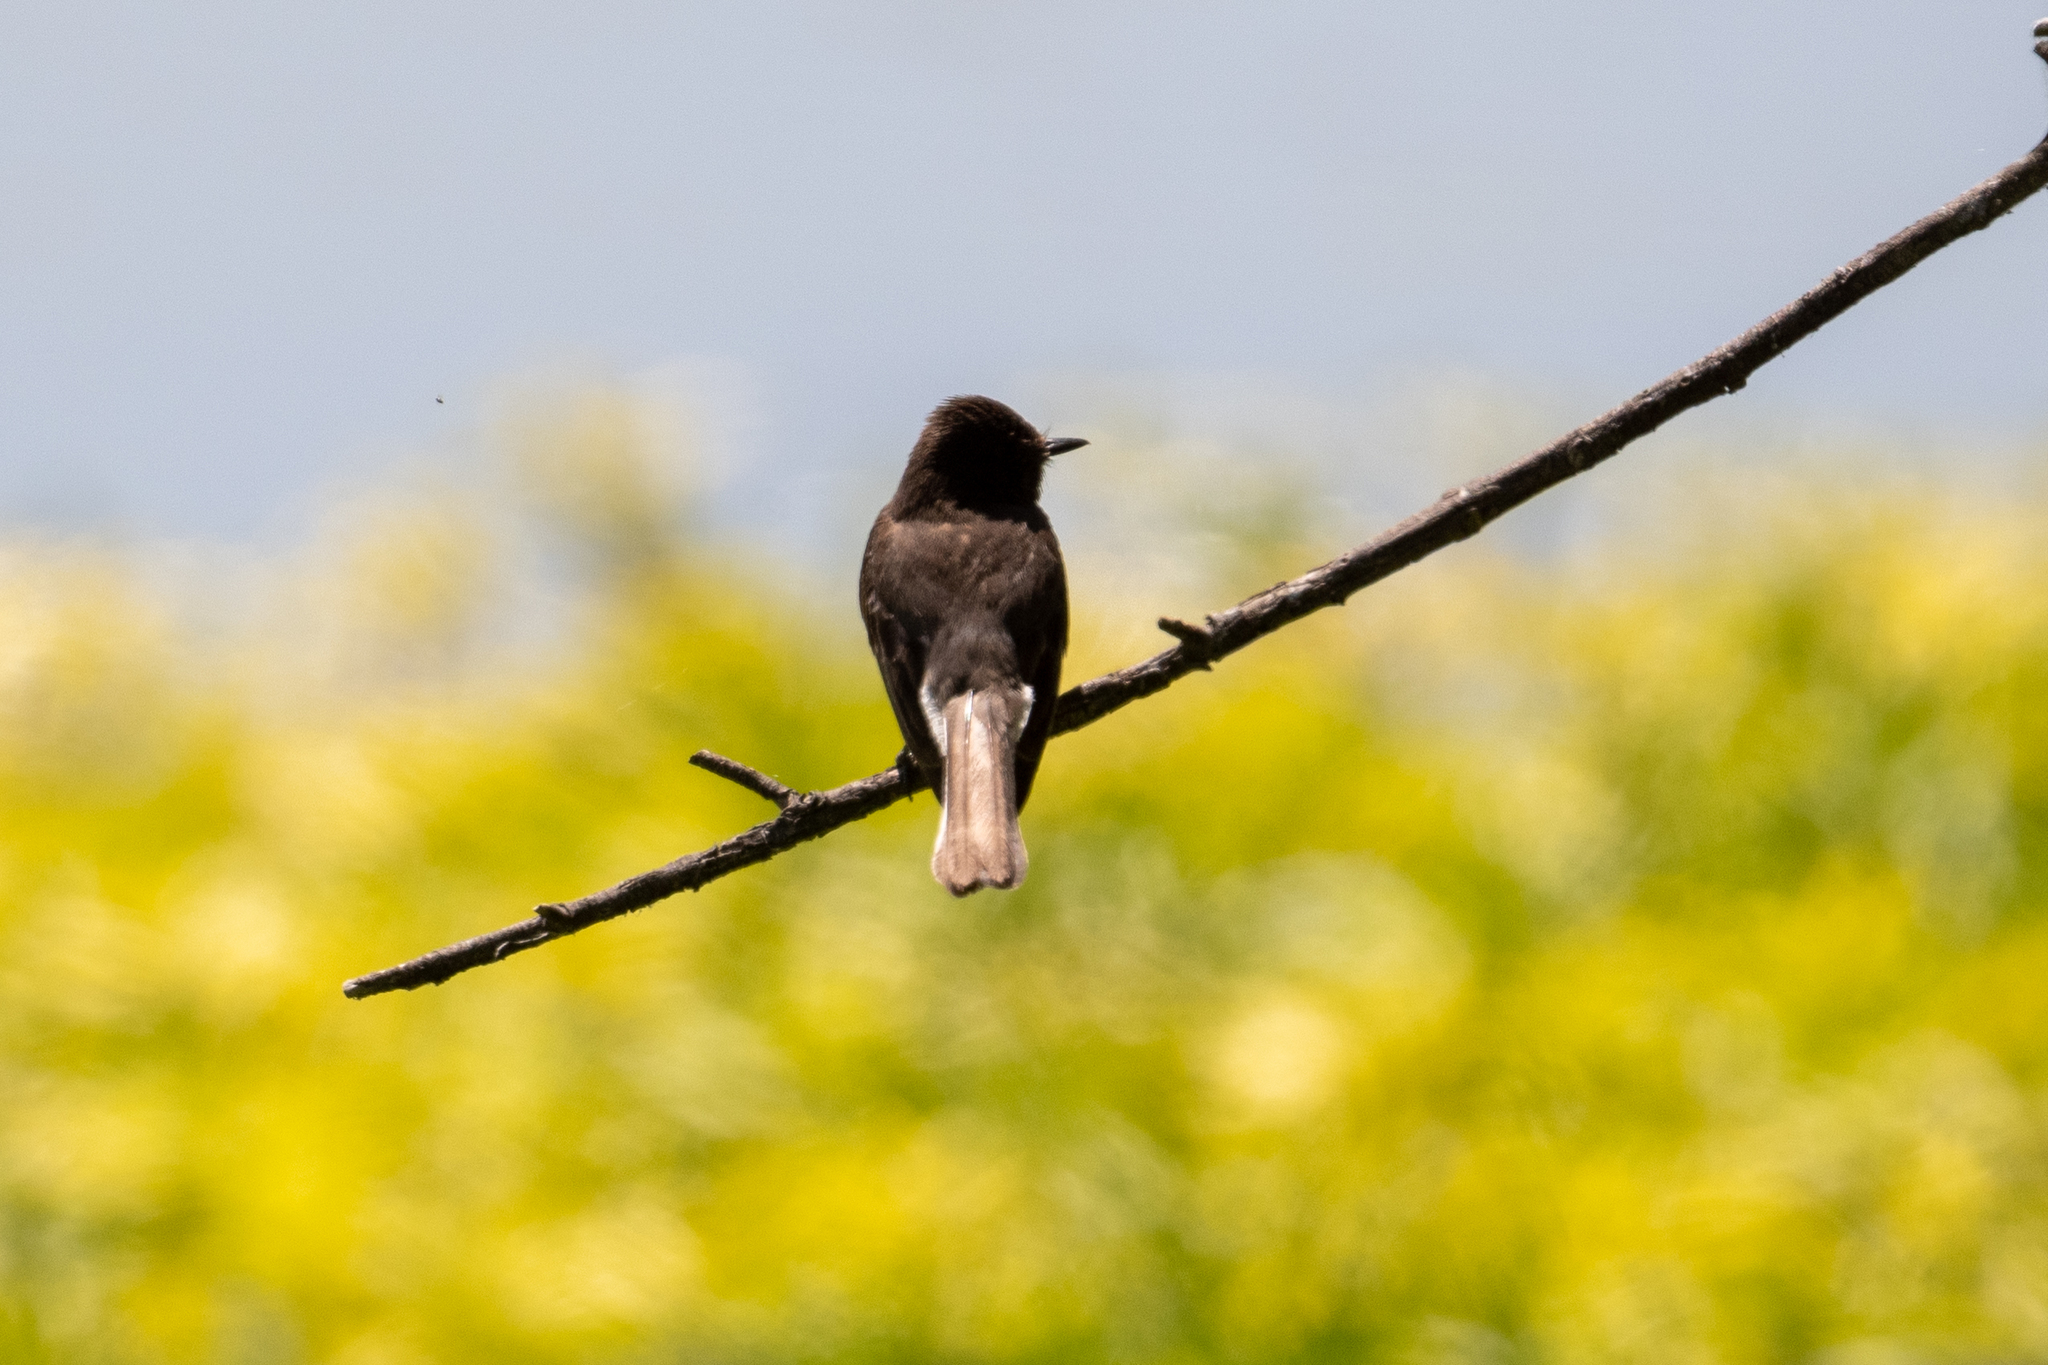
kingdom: Animalia
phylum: Chordata
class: Aves
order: Passeriformes
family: Tyrannidae
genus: Sayornis
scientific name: Sayornis nigricans
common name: Black phoebe
